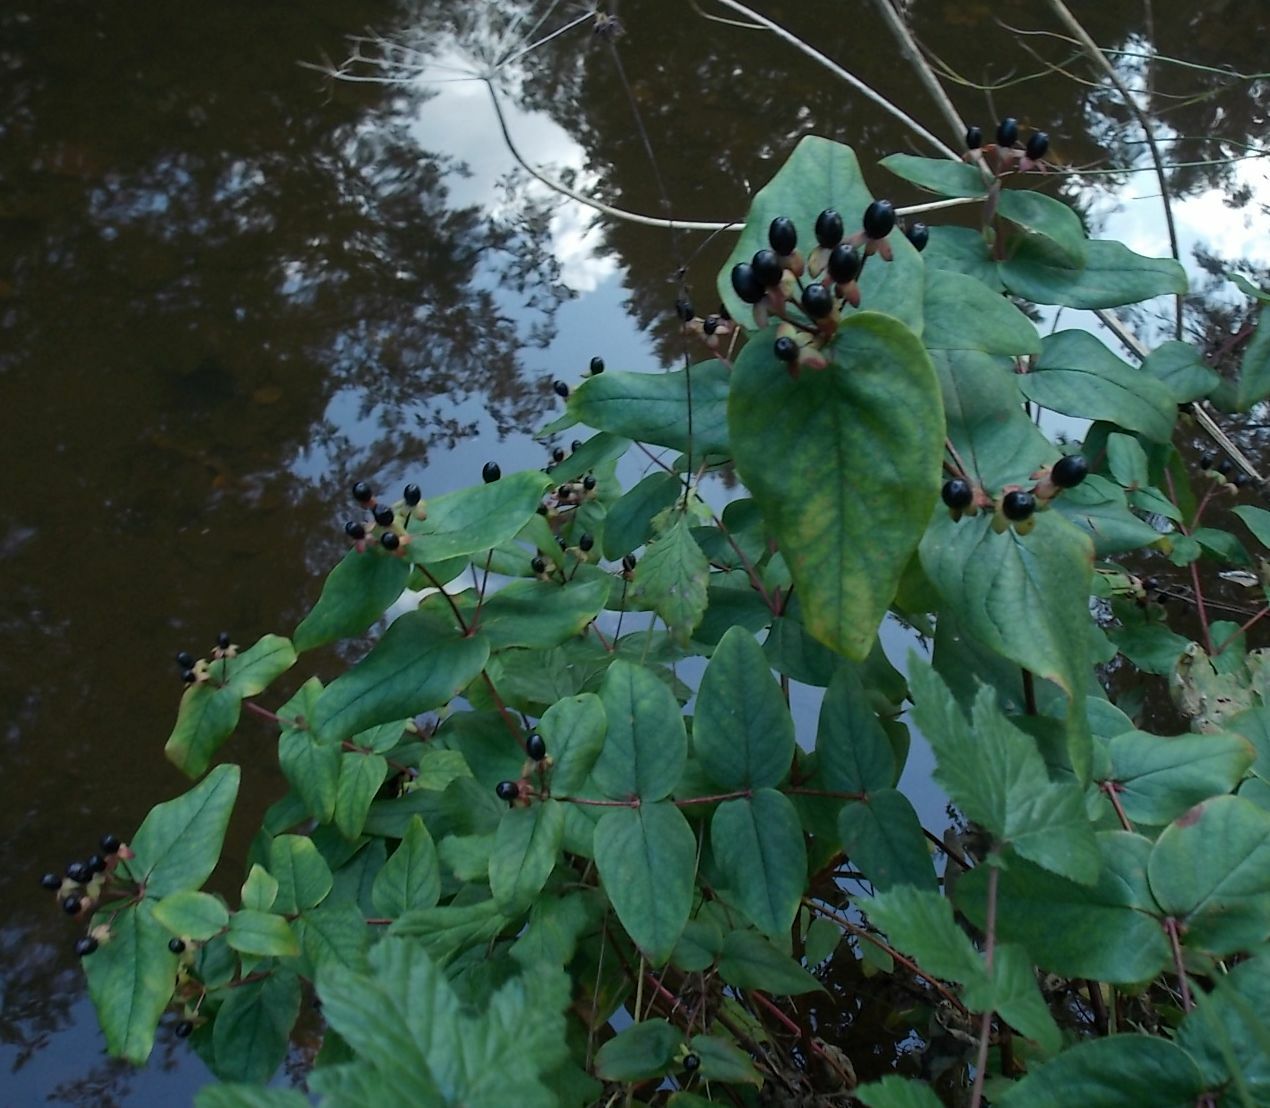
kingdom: Plantae
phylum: Tracheophyta
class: Magnoliopsida
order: Malpighiales
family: Hypericaceae
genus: Hypericum
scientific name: Hypericum androsaemum
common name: Sweet-amber
